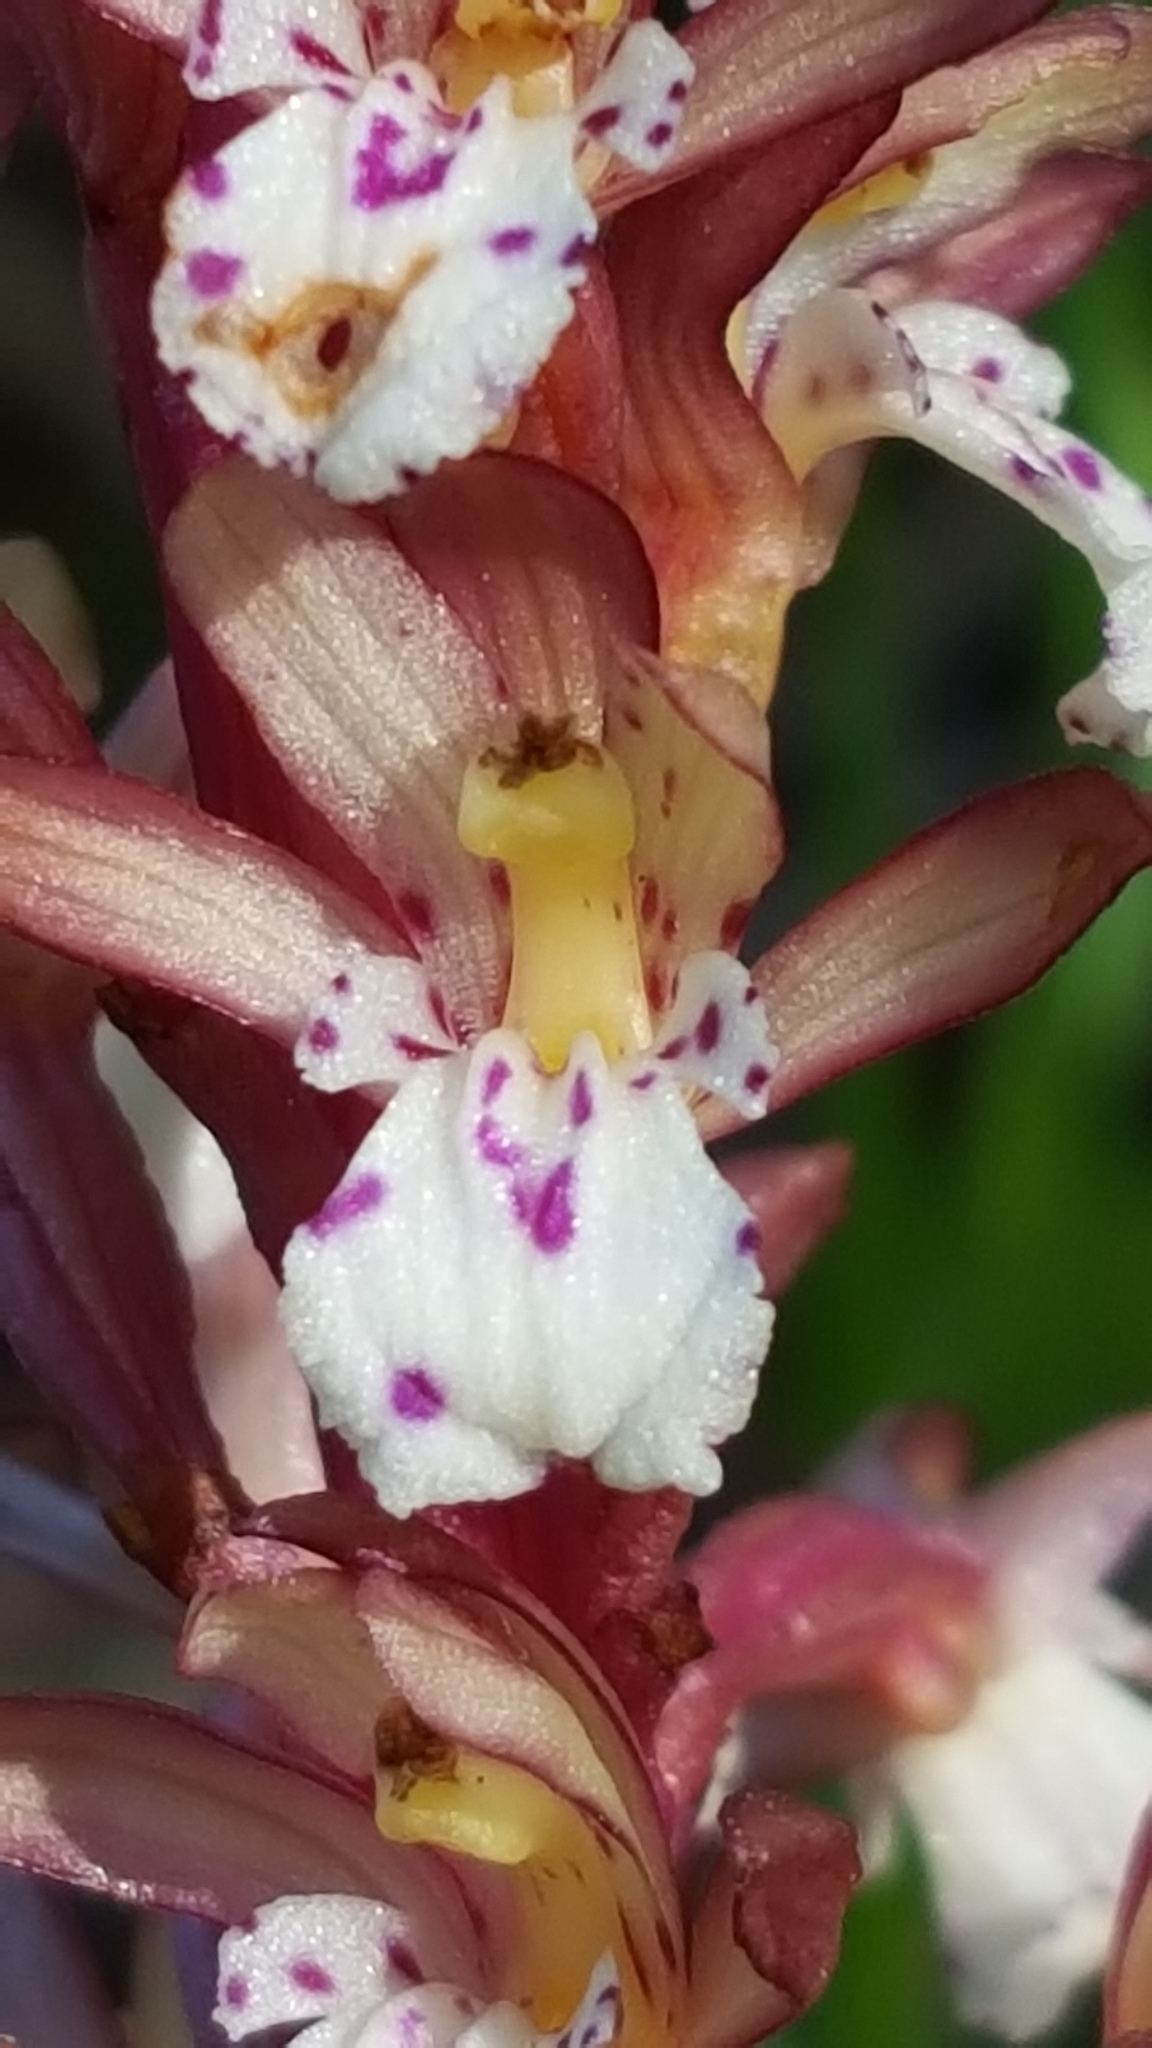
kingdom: Plantae
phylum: Tracheophyta
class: Liliopsida
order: Asparagales
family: Orchidaceae
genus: Corallorhiza
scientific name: Corallorhiza maculata
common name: Spotted coralroot
